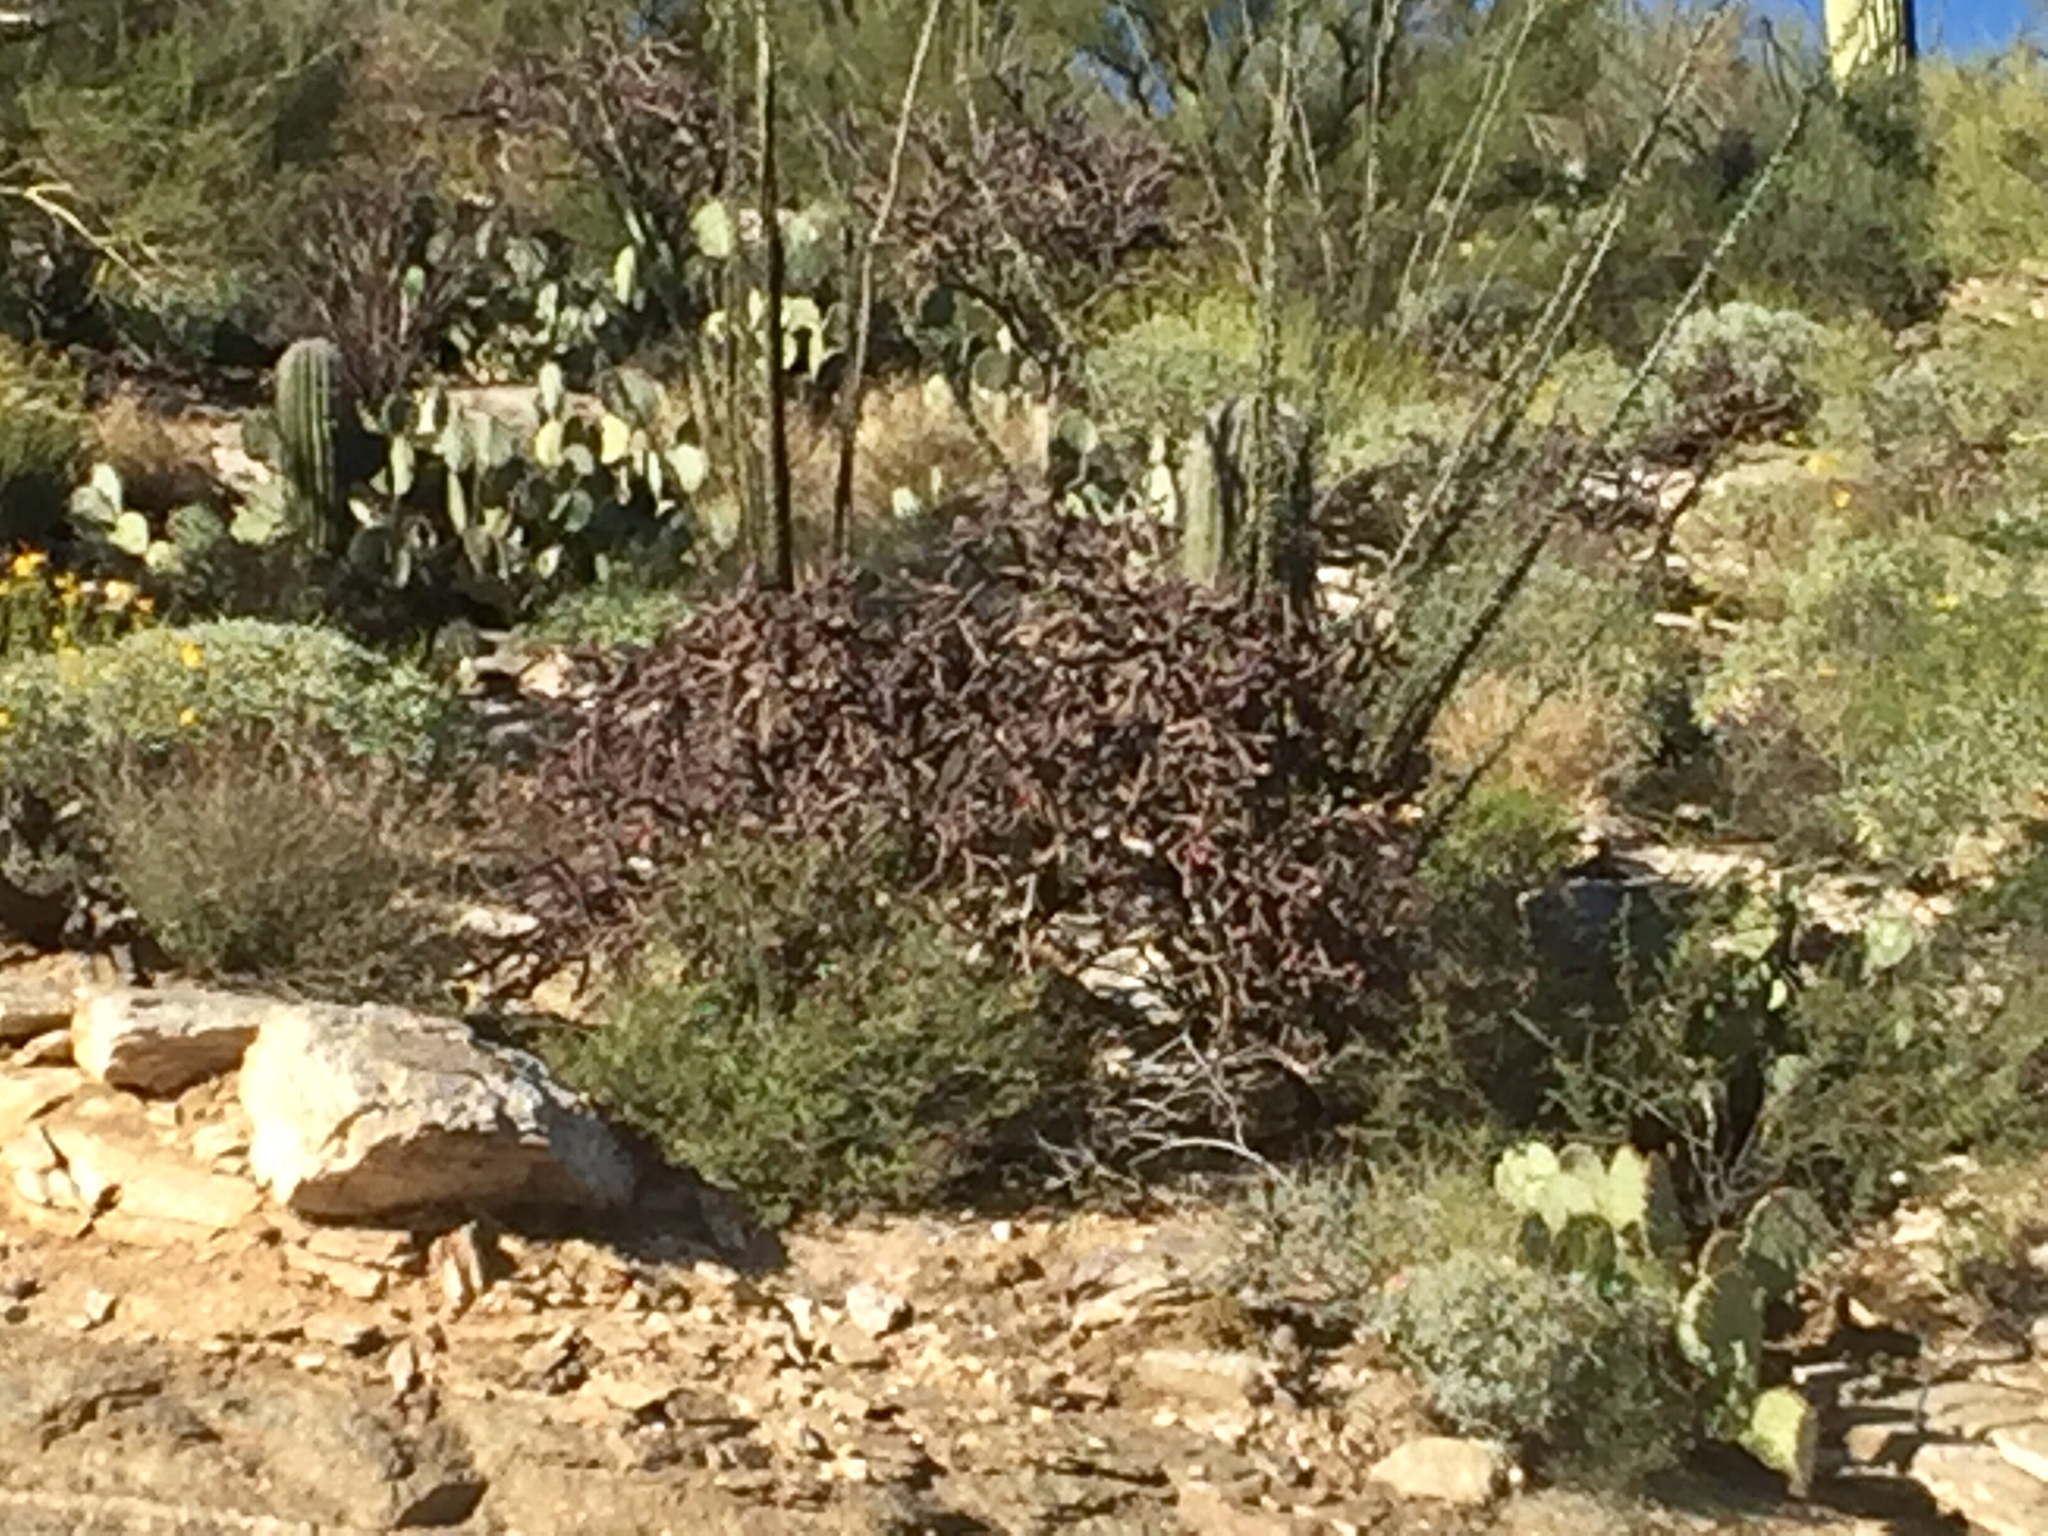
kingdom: Plantae
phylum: Tracheophyta
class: Magnoliopsida
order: Caryophyllales
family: Cactaceae
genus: Cylindropuntia
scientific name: Cylindropuntia thurberi
